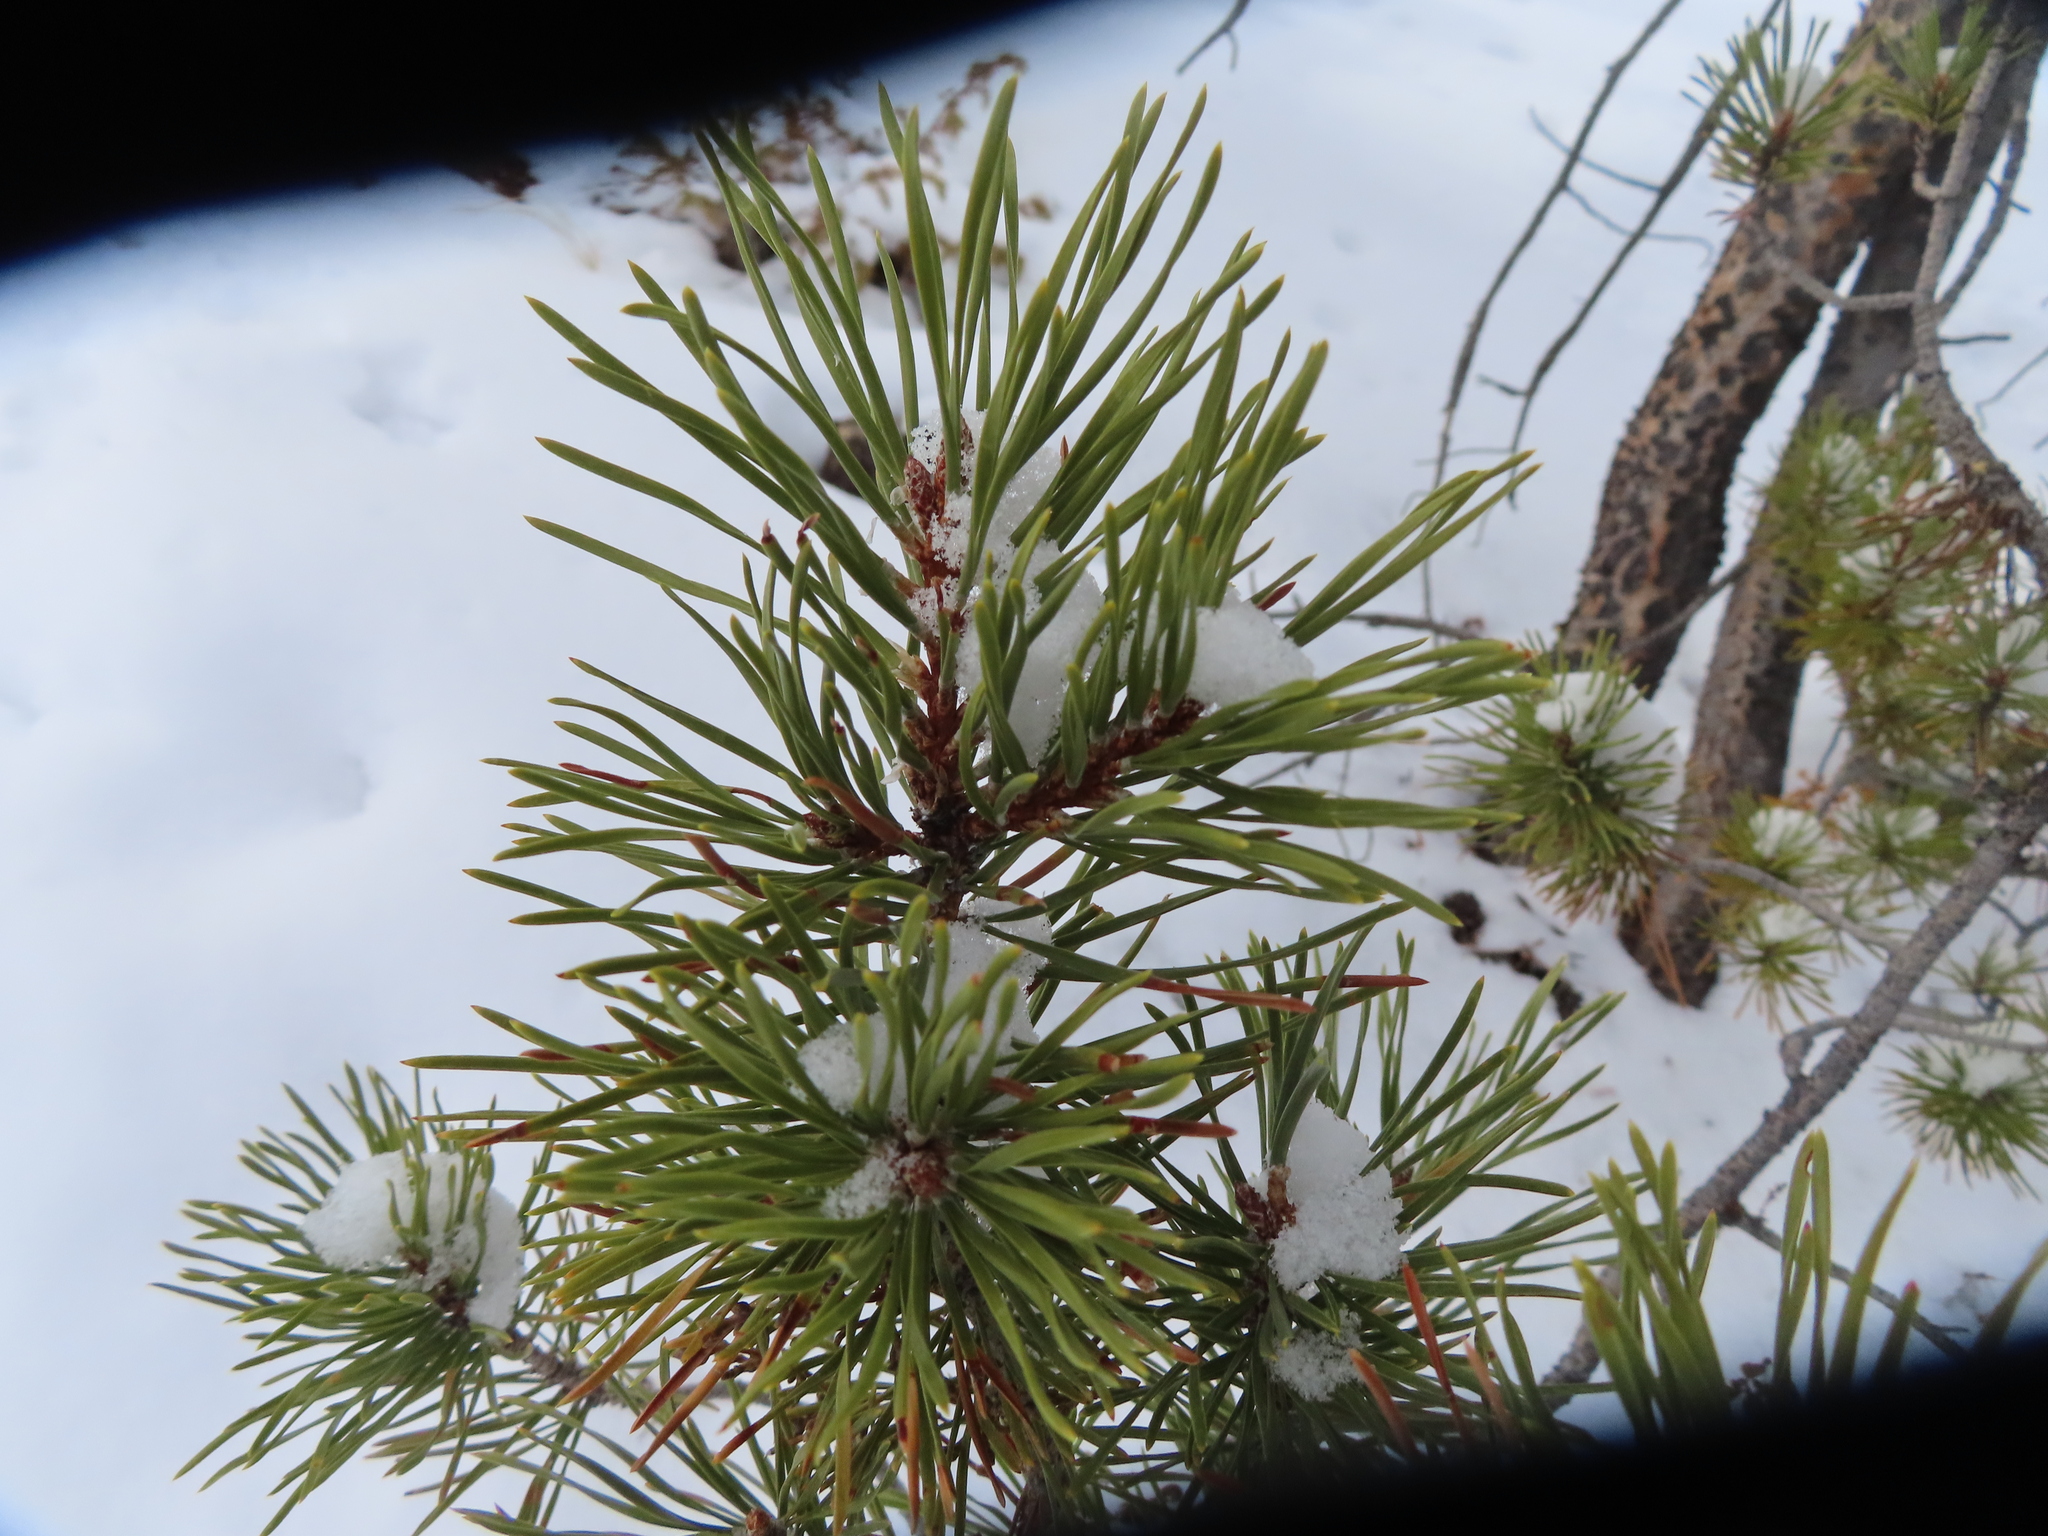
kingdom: Plantae
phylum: Tracheophyta
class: Pinopsida
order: Pinales
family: Pinaceae
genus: Pinus
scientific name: Pinus contorta
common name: Lodgepole pine
